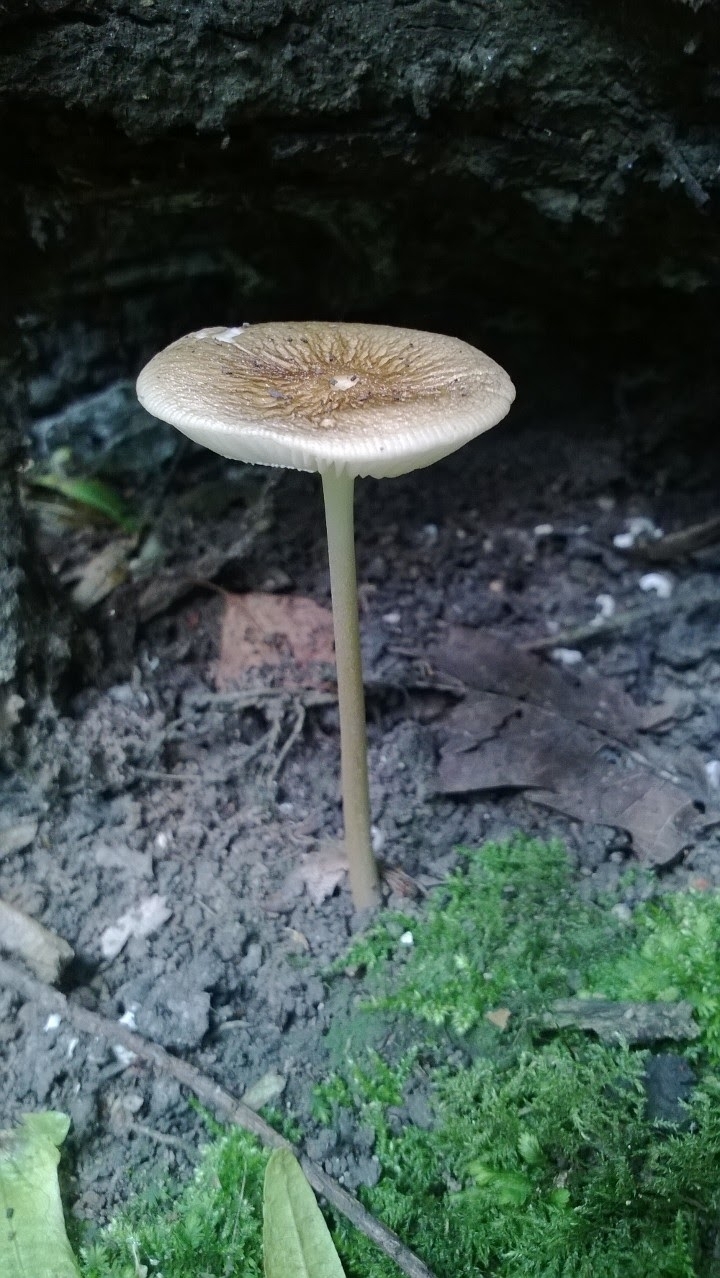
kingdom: Fungi
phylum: Basidiomycota
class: Agaricomycetes
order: Agaricales
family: Physalacriaceae
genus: Hymenopellis
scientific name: Hymenopellis radicata
